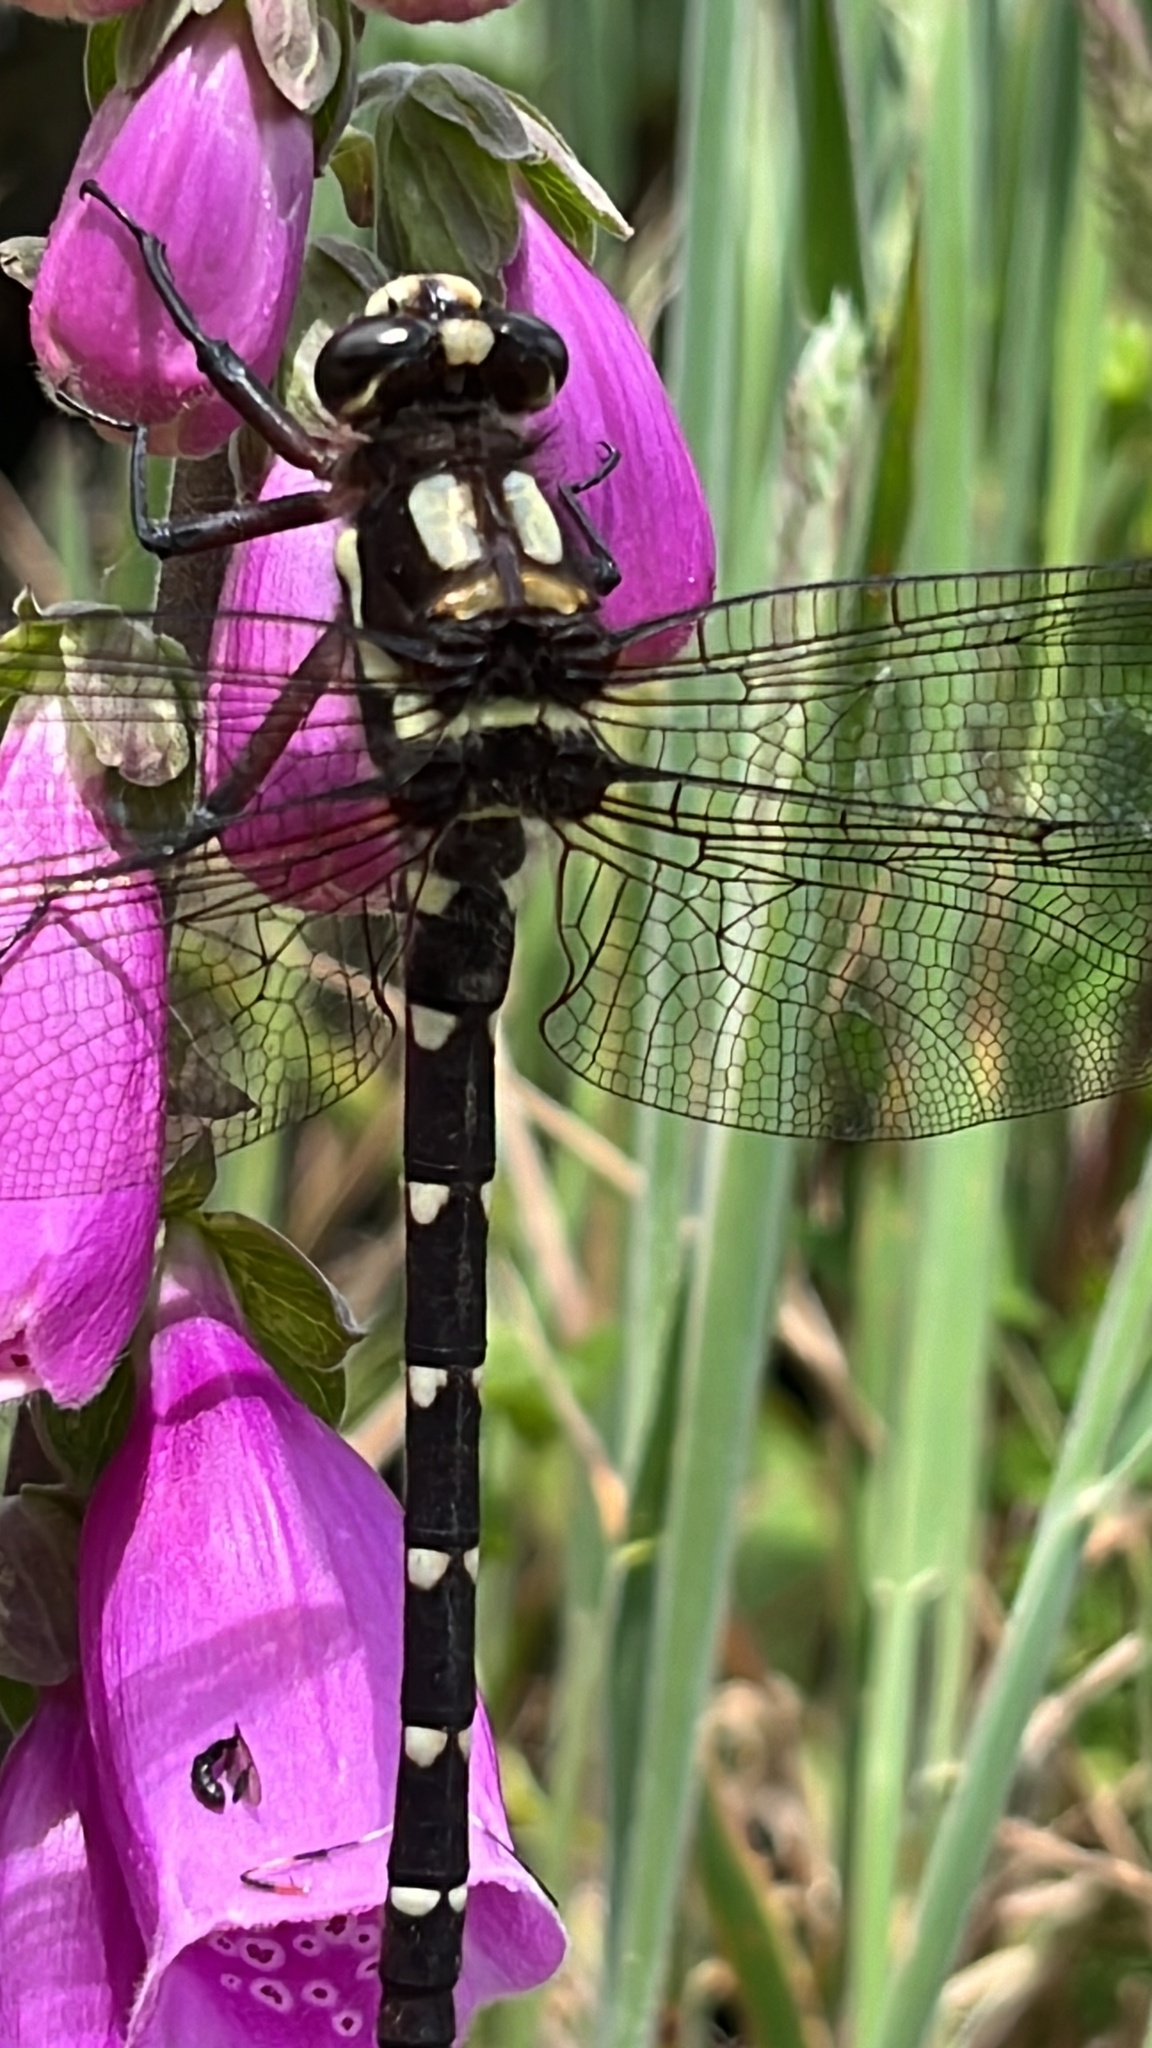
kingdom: Animalia
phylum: Arthropoda
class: Insecta
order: Odonata
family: Petaluridae
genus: Uropetala
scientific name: Uropetala carovei
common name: Bush giant dragonfly
